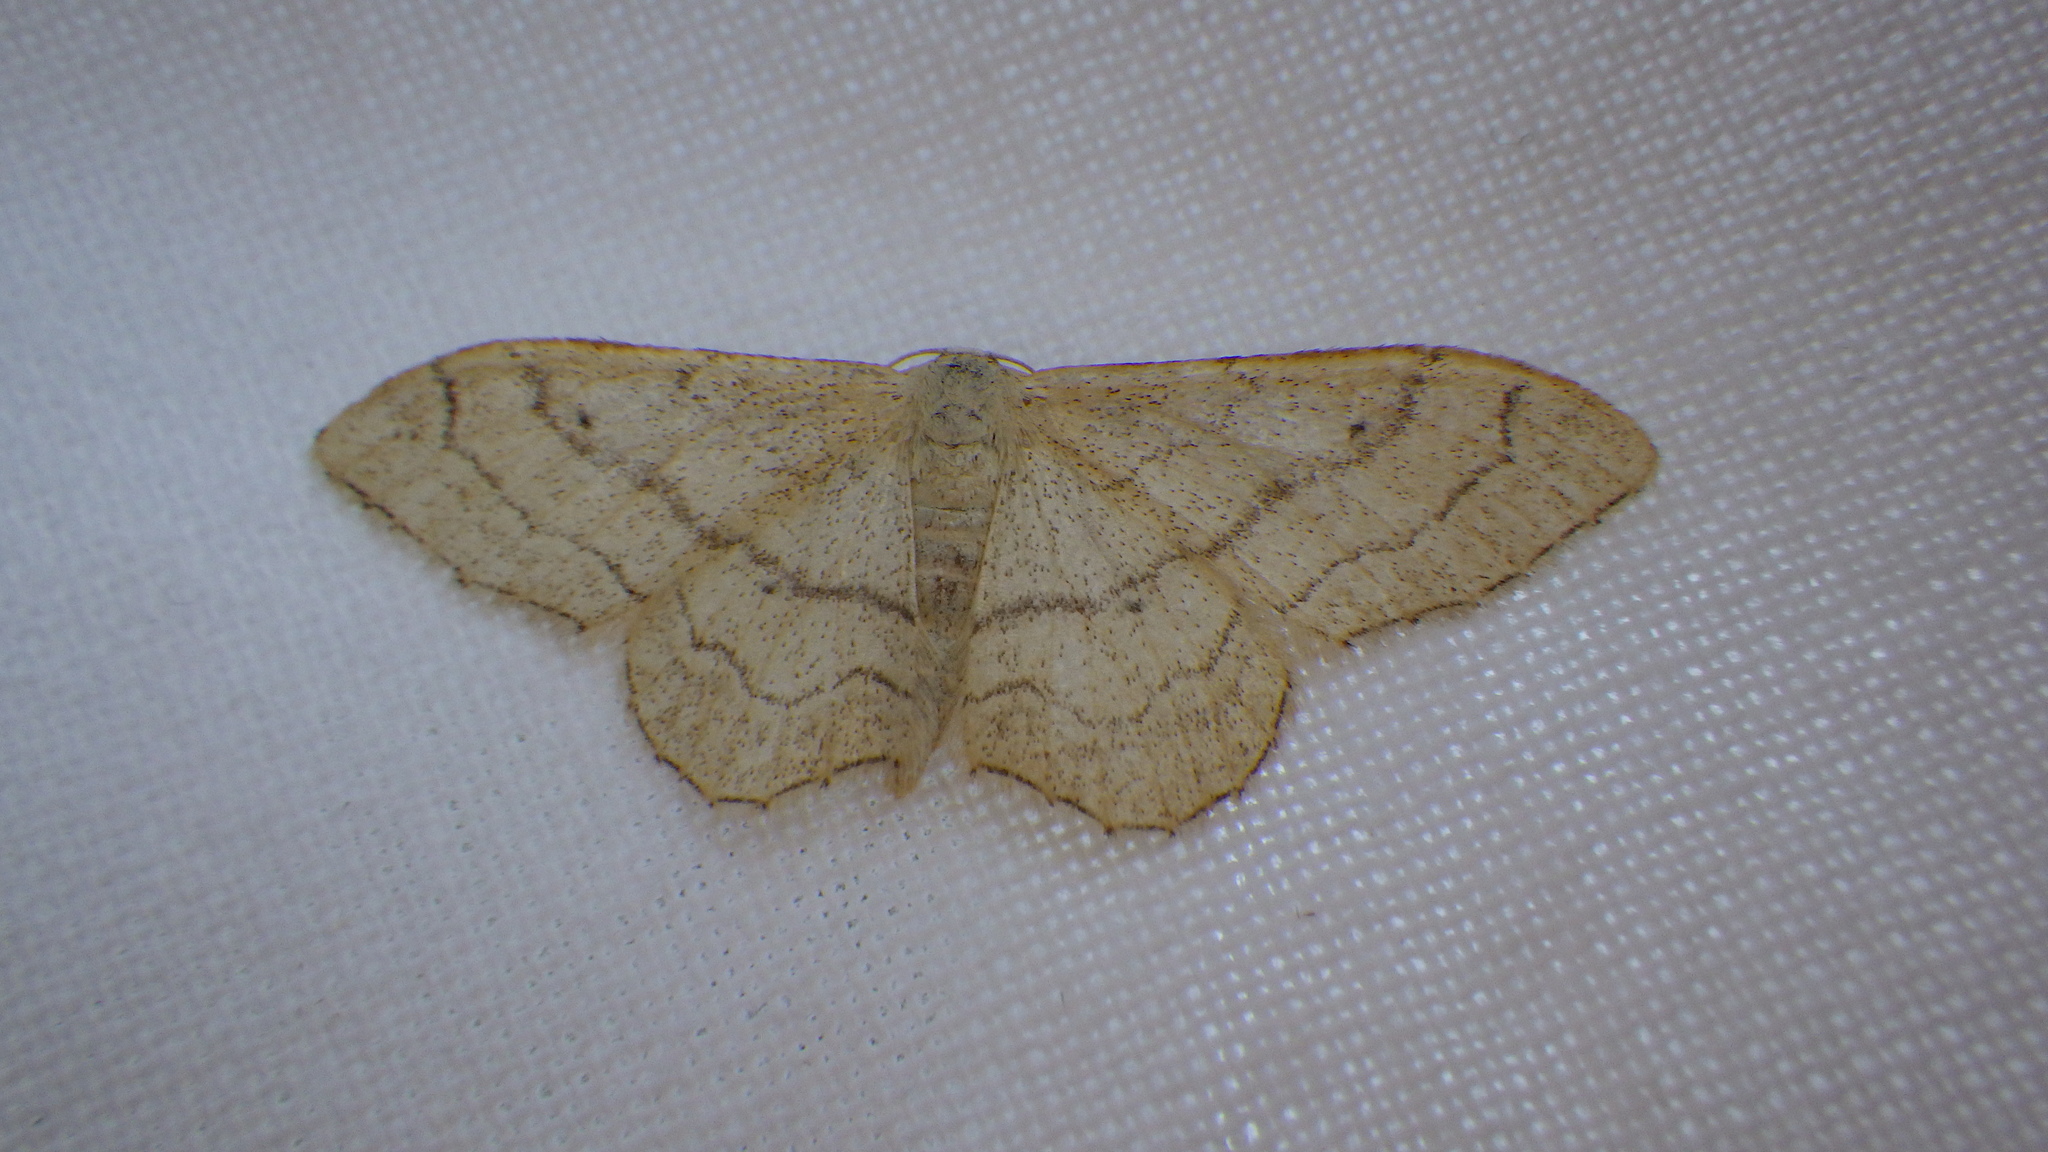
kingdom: Animalia
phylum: Arthropoda
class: Insecta
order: Lepidoptera
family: Geometridae
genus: Idaea
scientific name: Idaea aversata
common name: Riband wave
